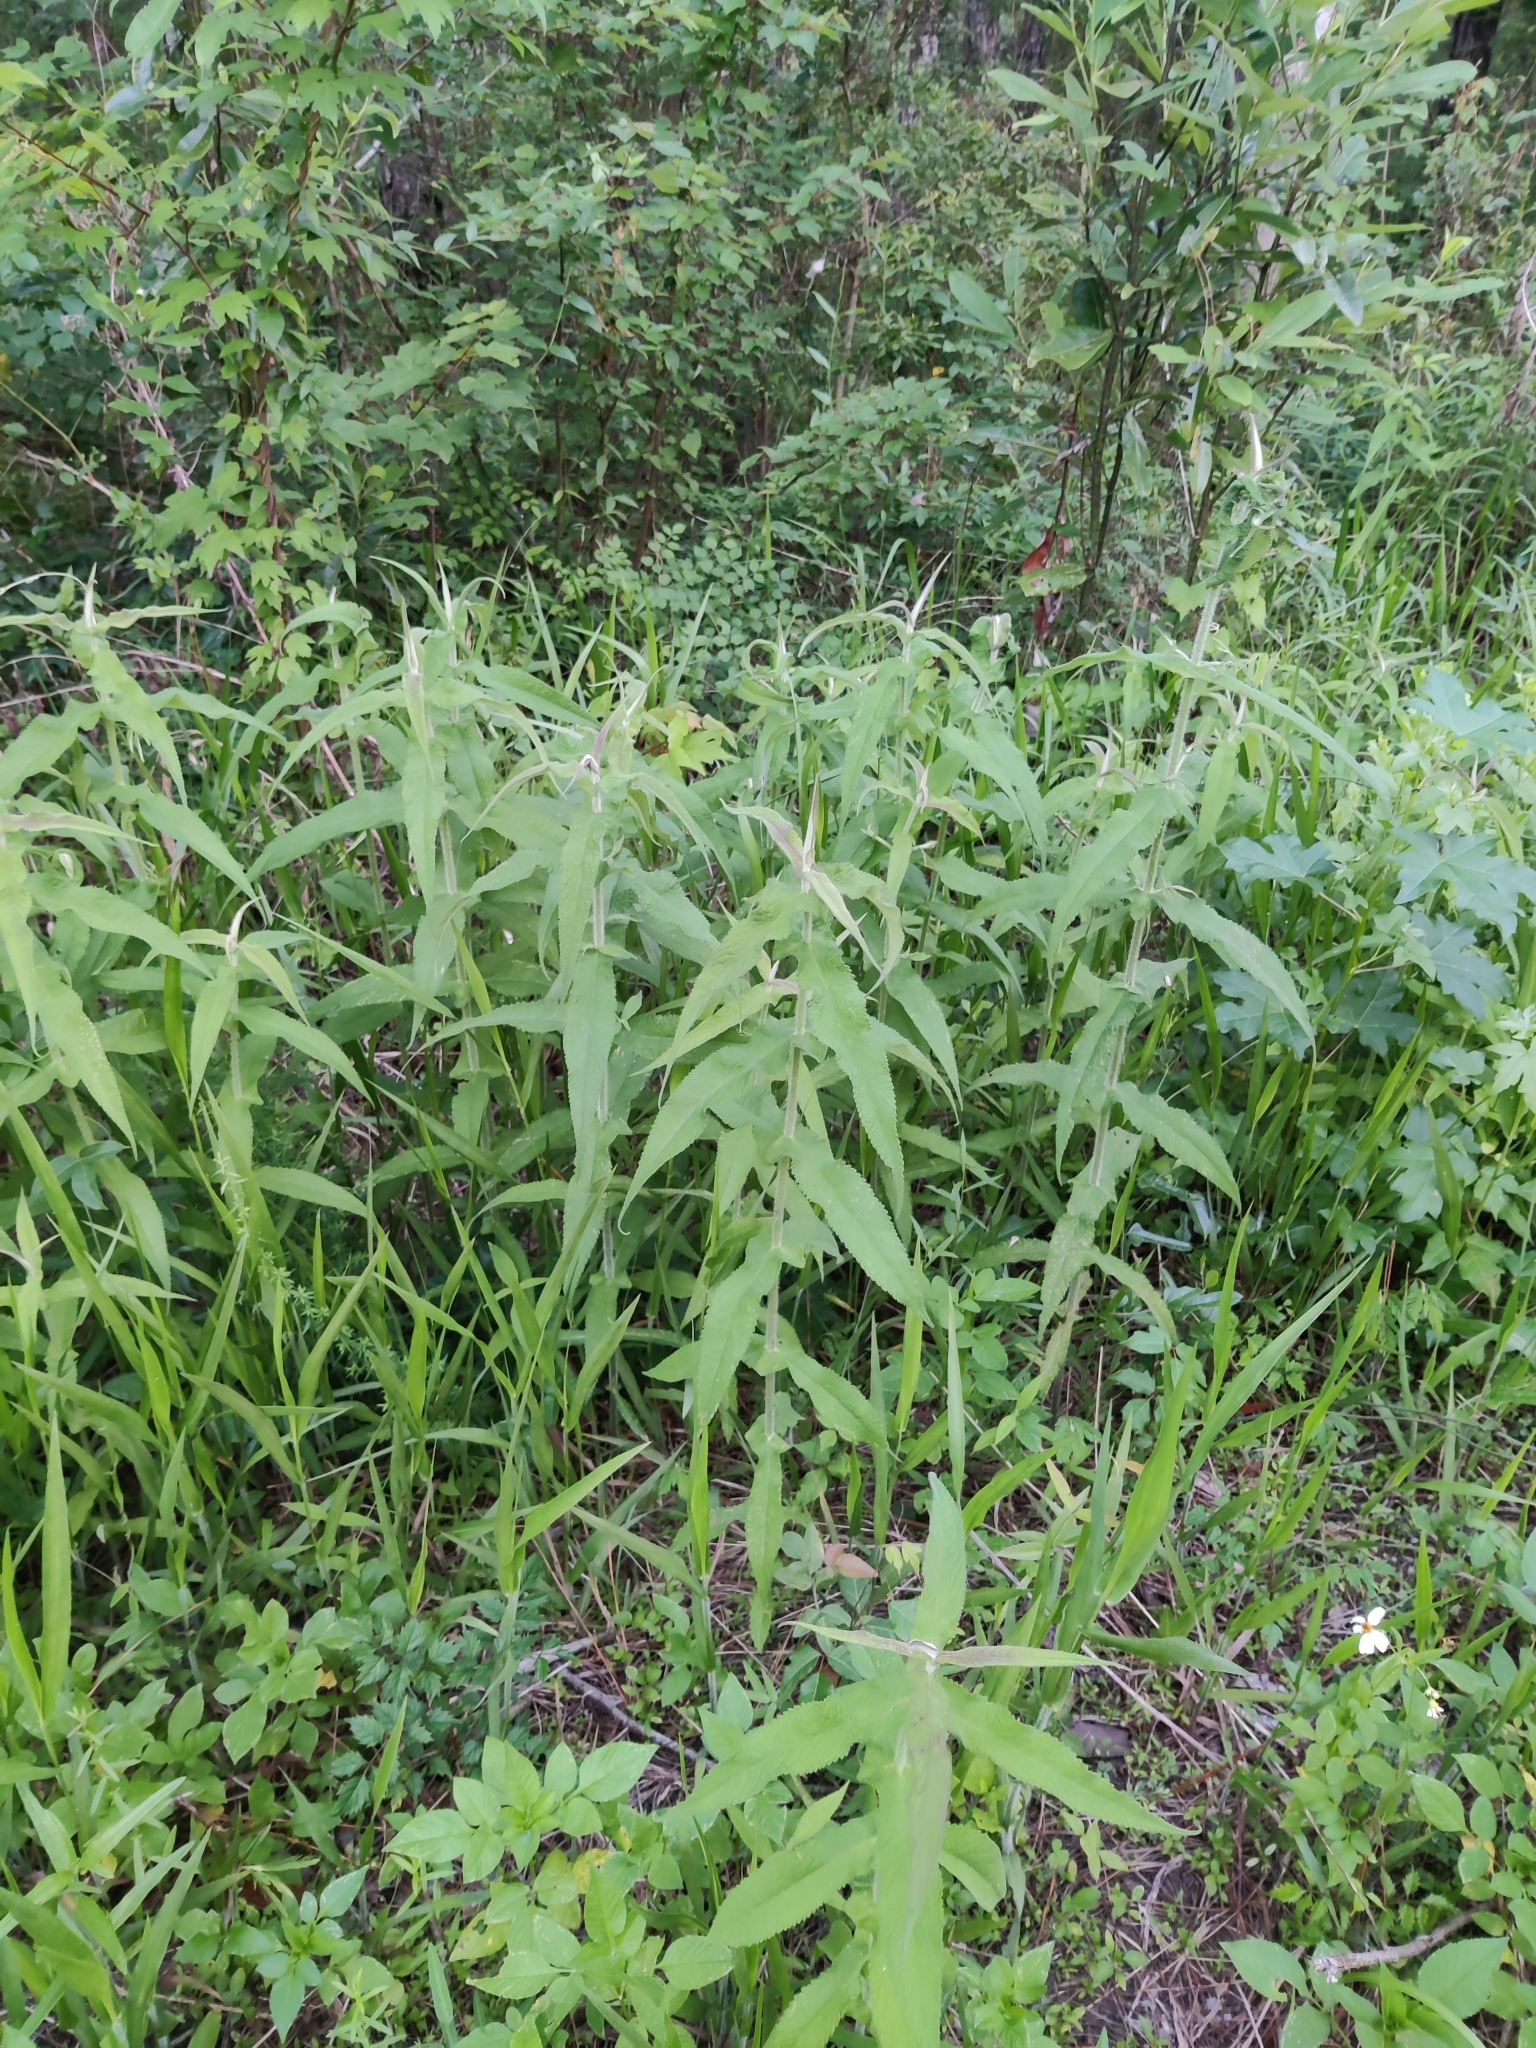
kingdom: Plantae
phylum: Tracheophyta
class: Magnoliopsida
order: Asterales
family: Asteraceae
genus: Eupatorium
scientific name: Eupatorium perfoliatum
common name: Boneset
